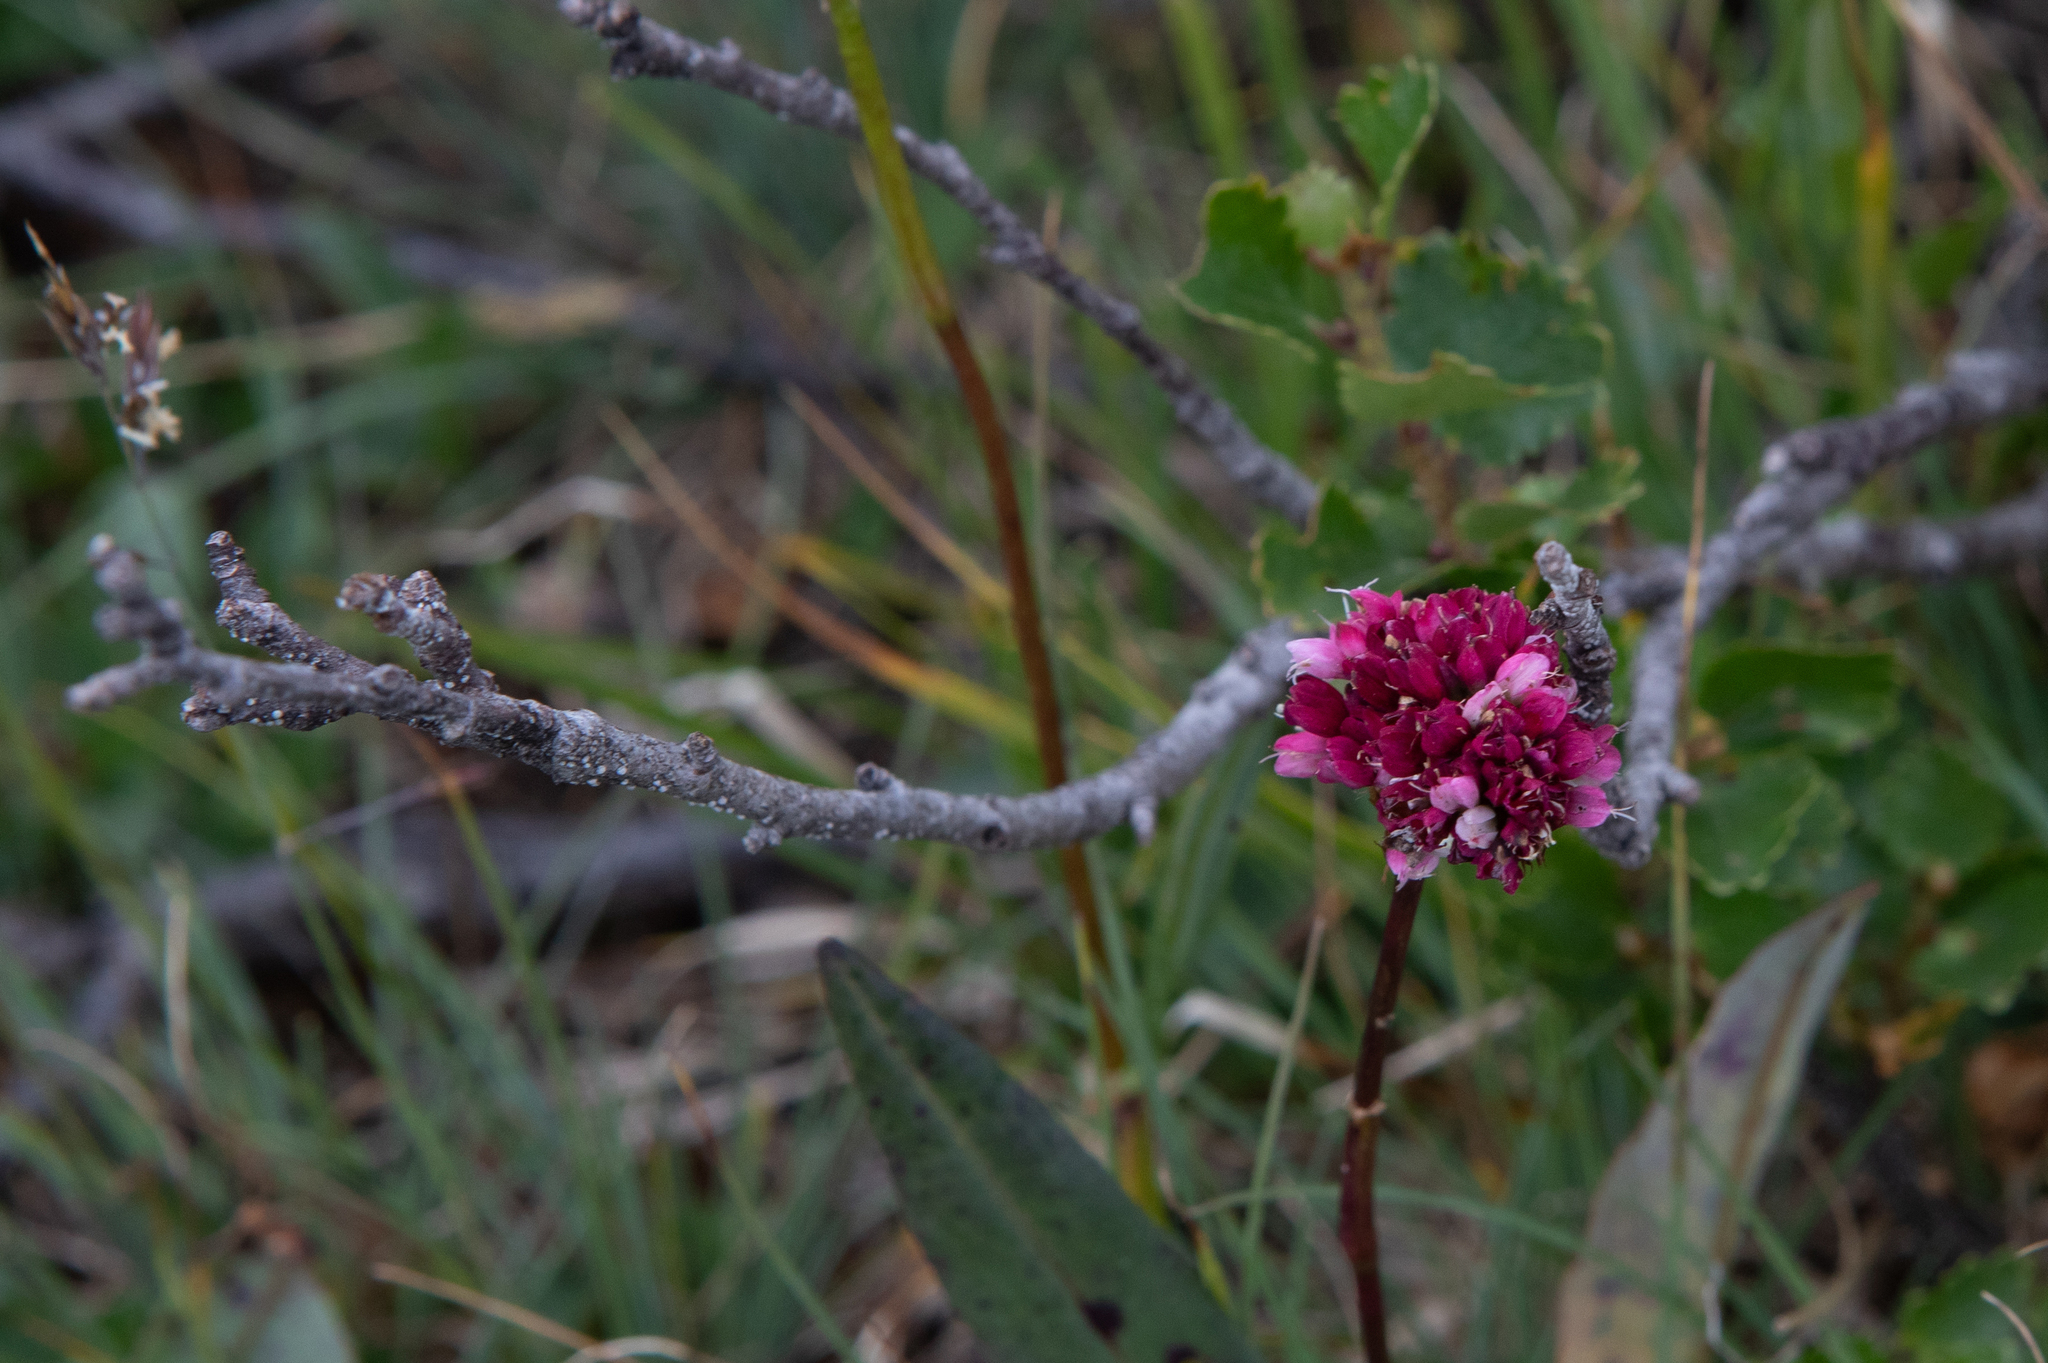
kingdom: Plantae
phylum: Tracheophyta
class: Magnoliopsida
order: Caryophyllales
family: Polygonaceae
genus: Bistorta
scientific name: Bistorta elliptica
